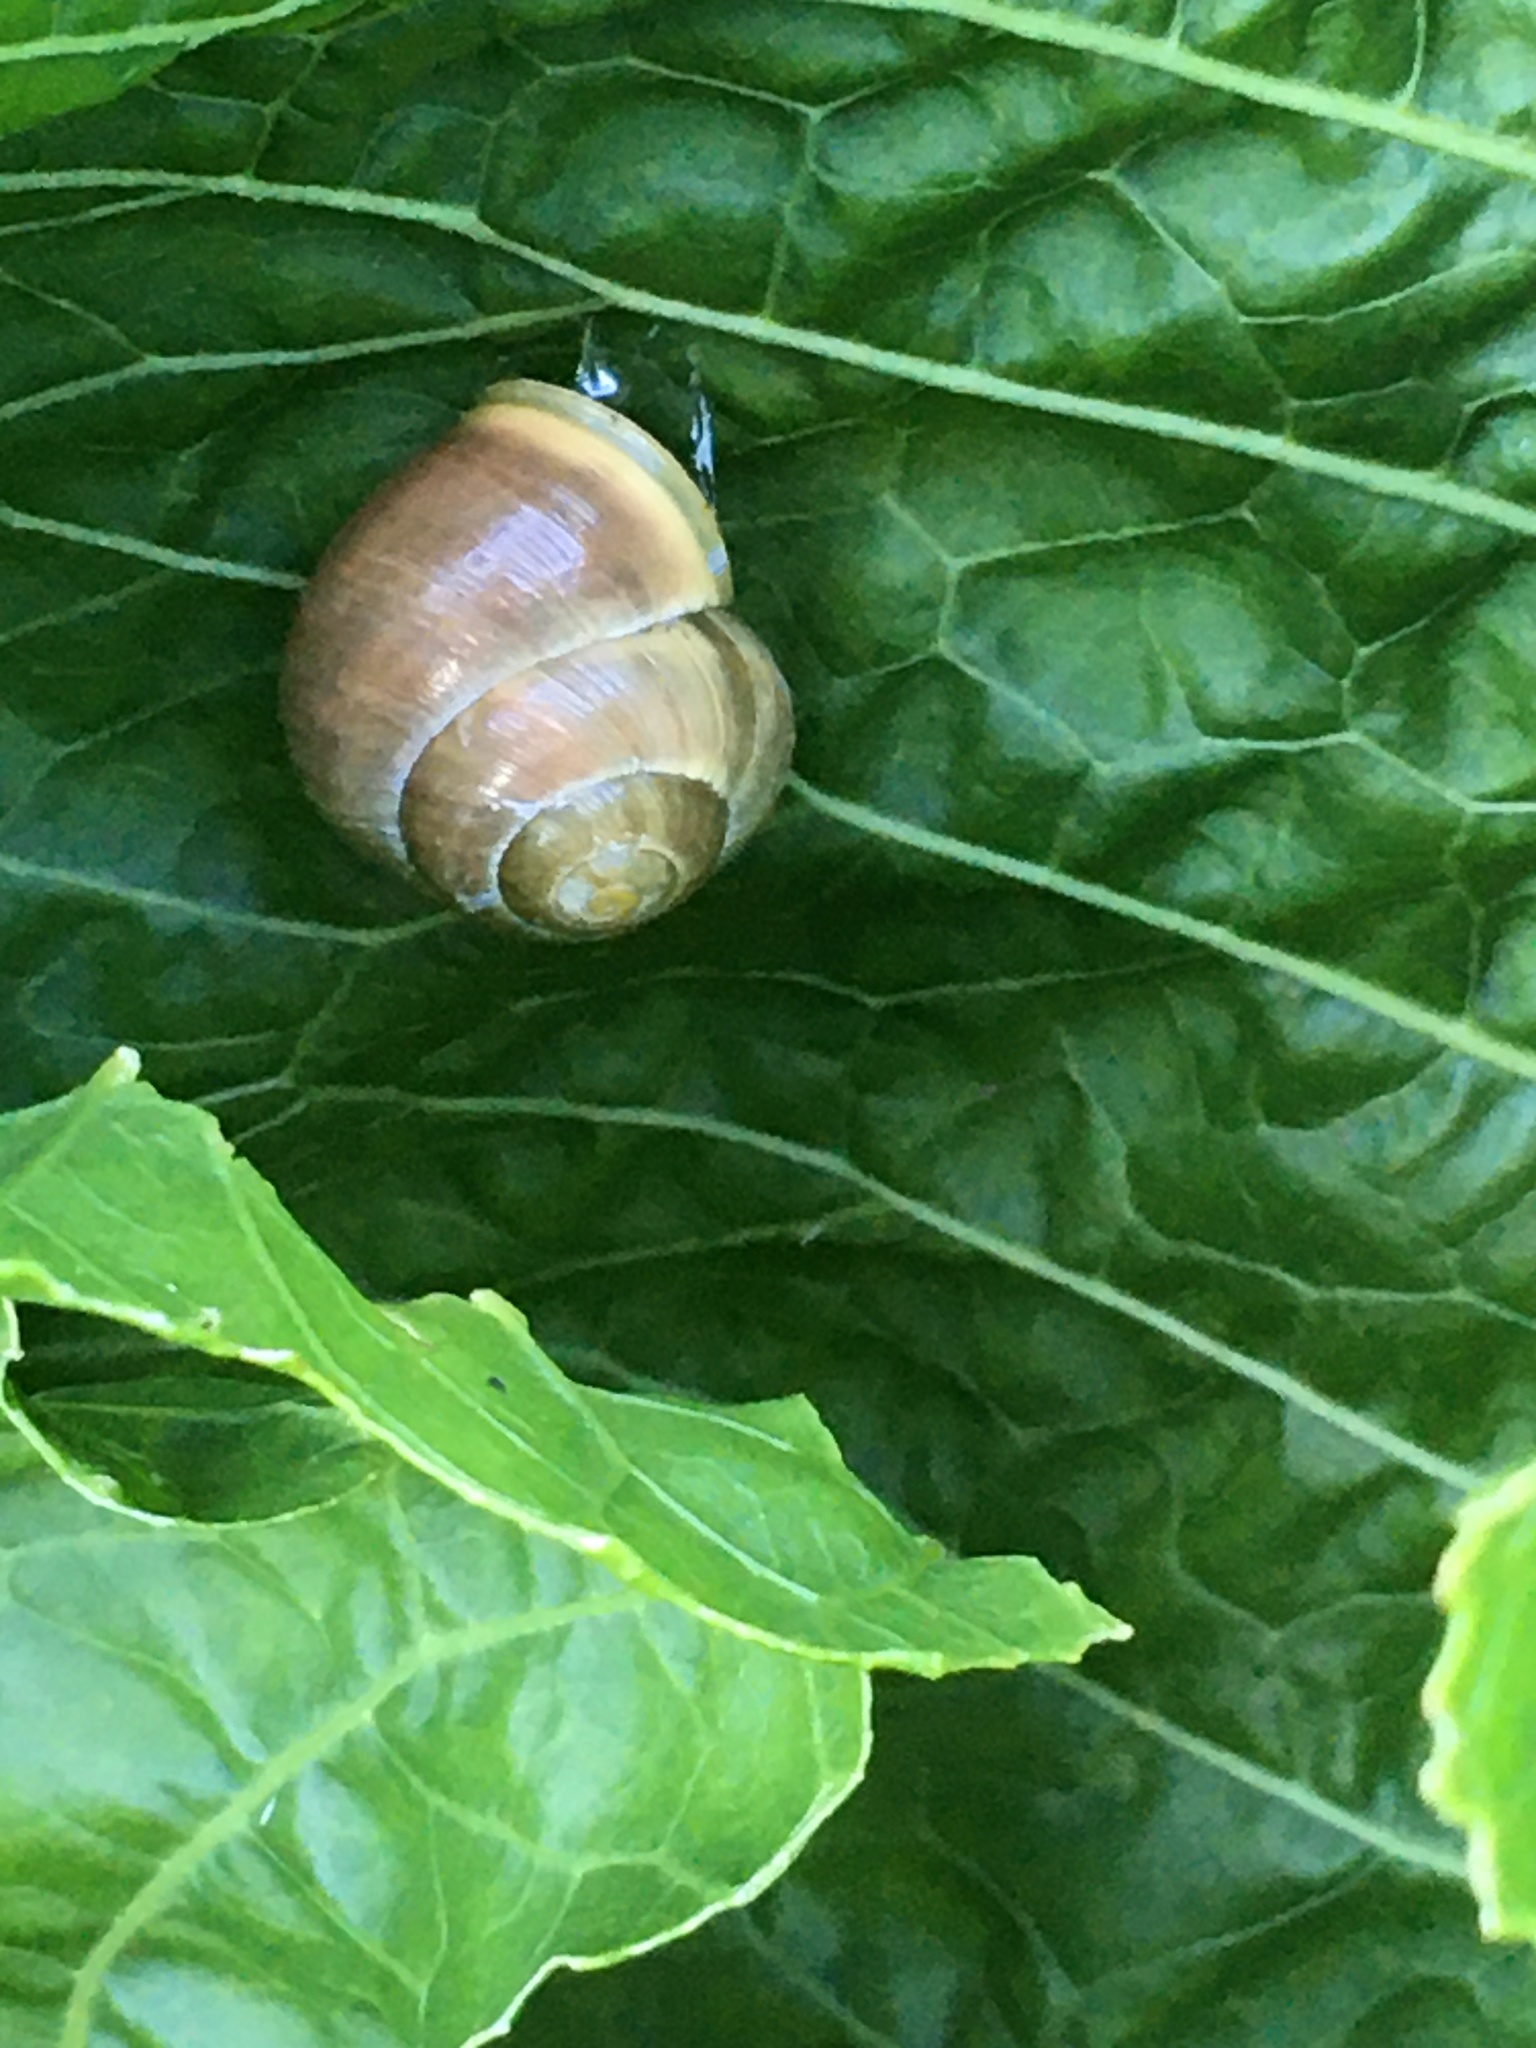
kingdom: Animalia
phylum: Mollusca
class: Gastropoda
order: Stylommatophora
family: Helicidae
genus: Cepaea
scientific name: Cepaea hortensis
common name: White-lip gardensnail
